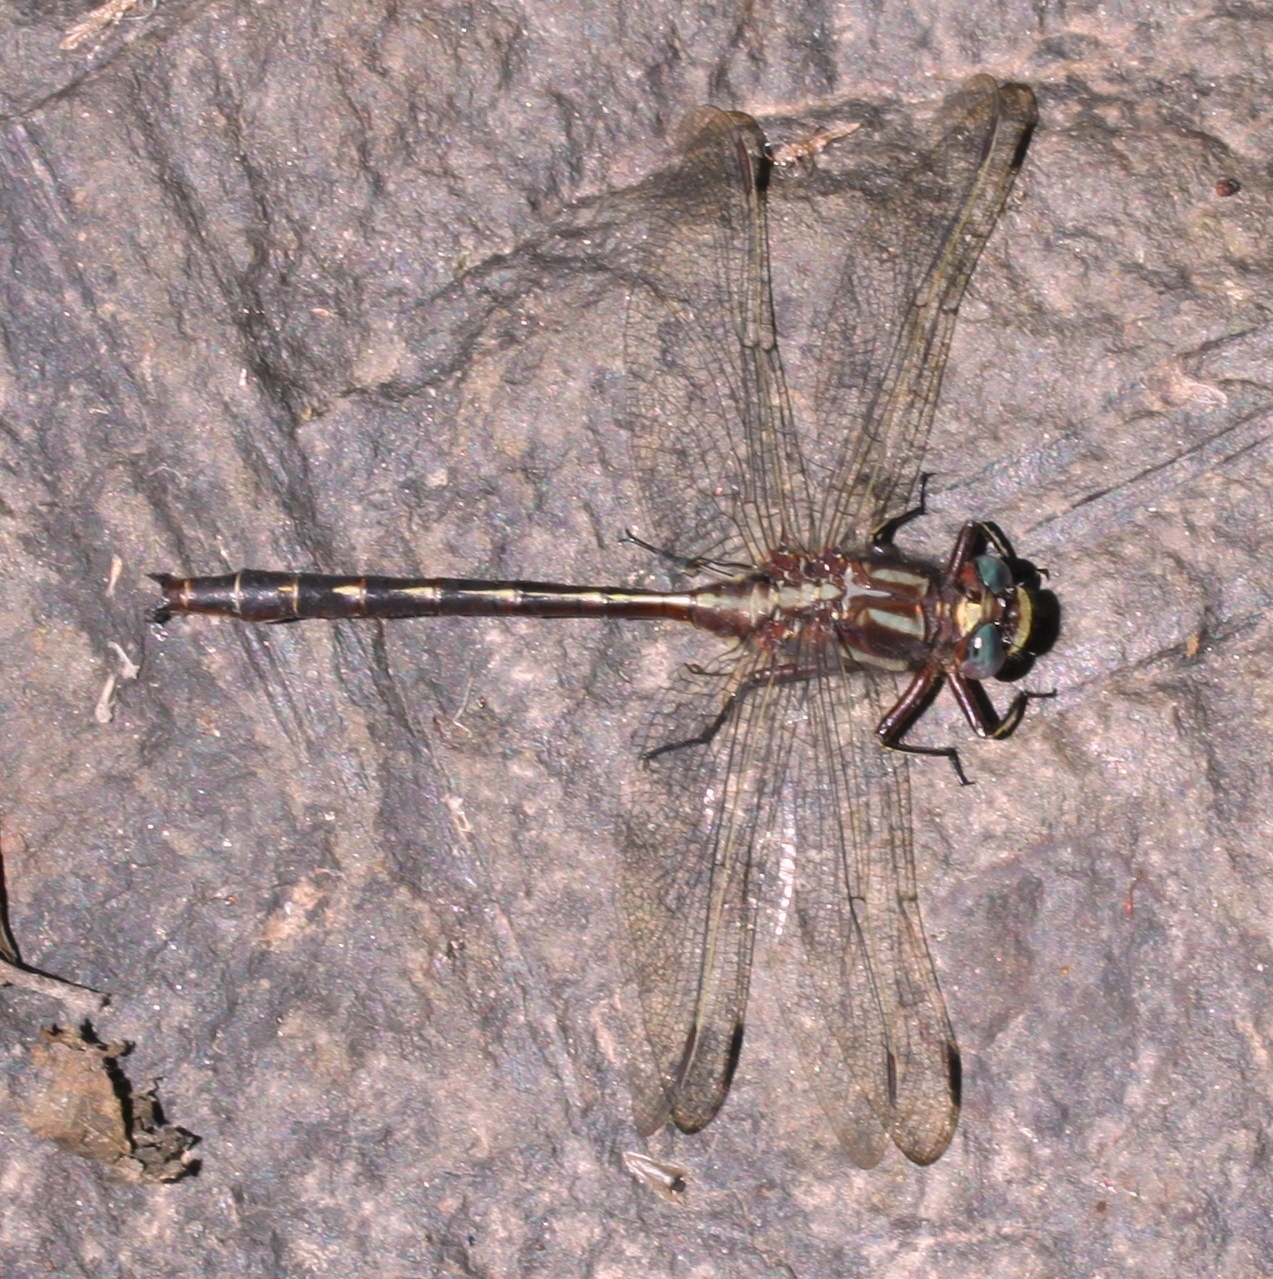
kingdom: Animalia
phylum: Arthropoda
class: Insecta
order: Odonata
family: Gomphidae
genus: Phanogomphus
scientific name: Phanogomphus spicatus
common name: Dusky clubtail
